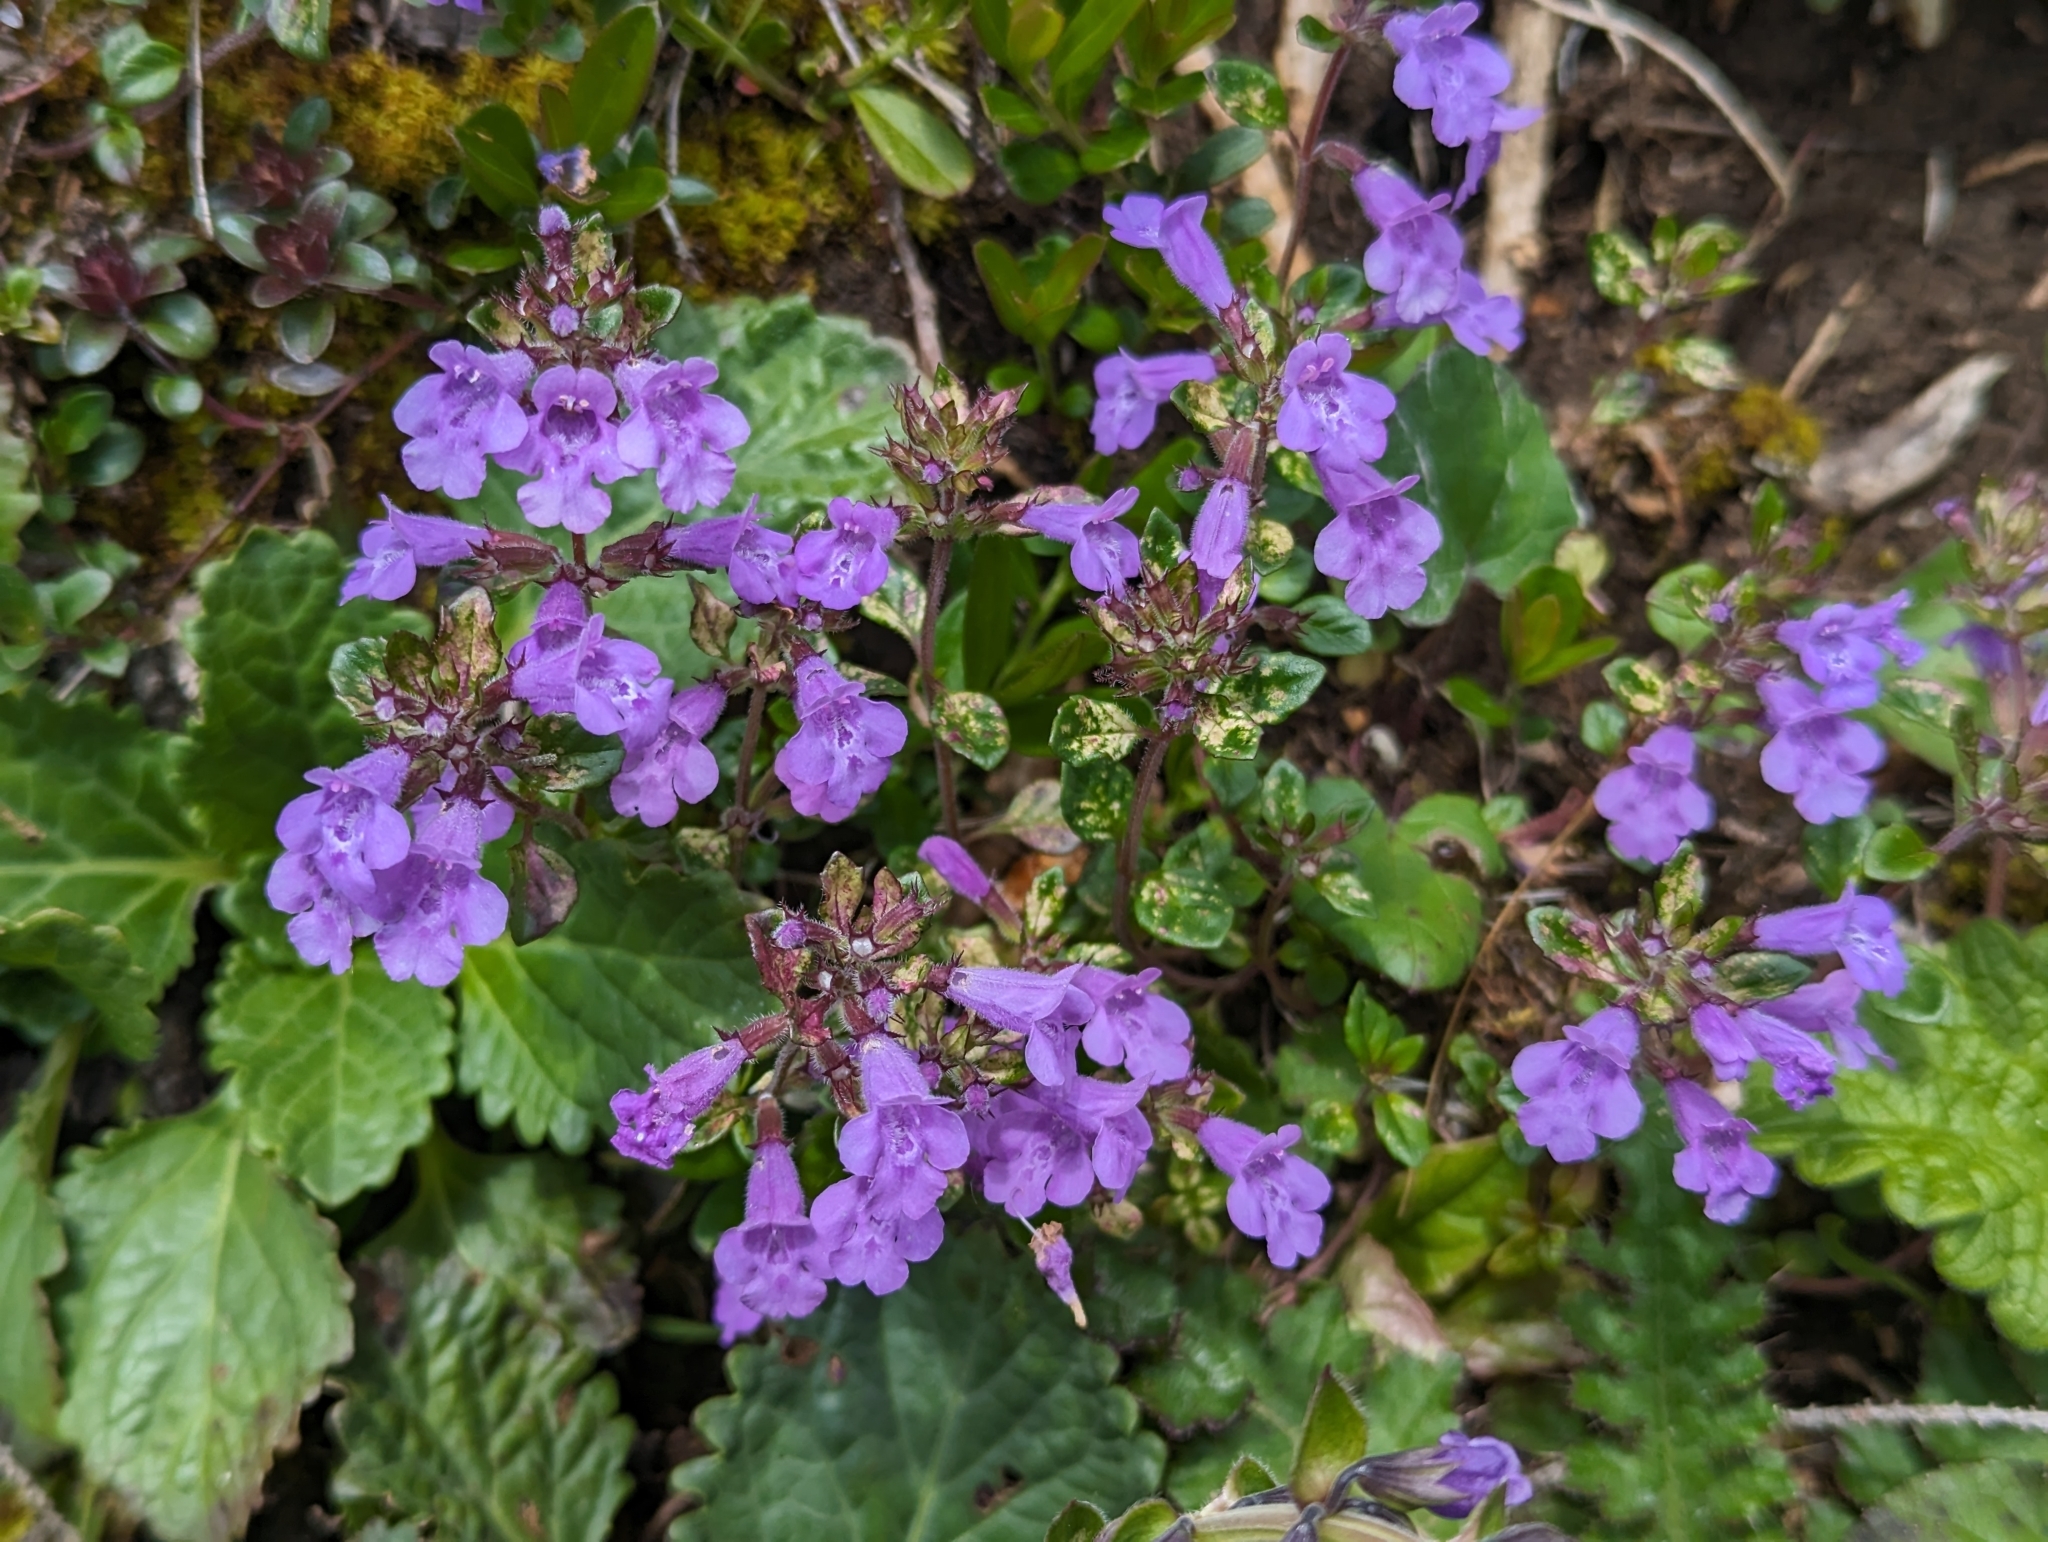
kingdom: Plantae
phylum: Tracheophyta
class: Magnoliopsida
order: Lamiales
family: Lamiaceae
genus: Clinopodium
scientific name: Clinopodium alpinum
